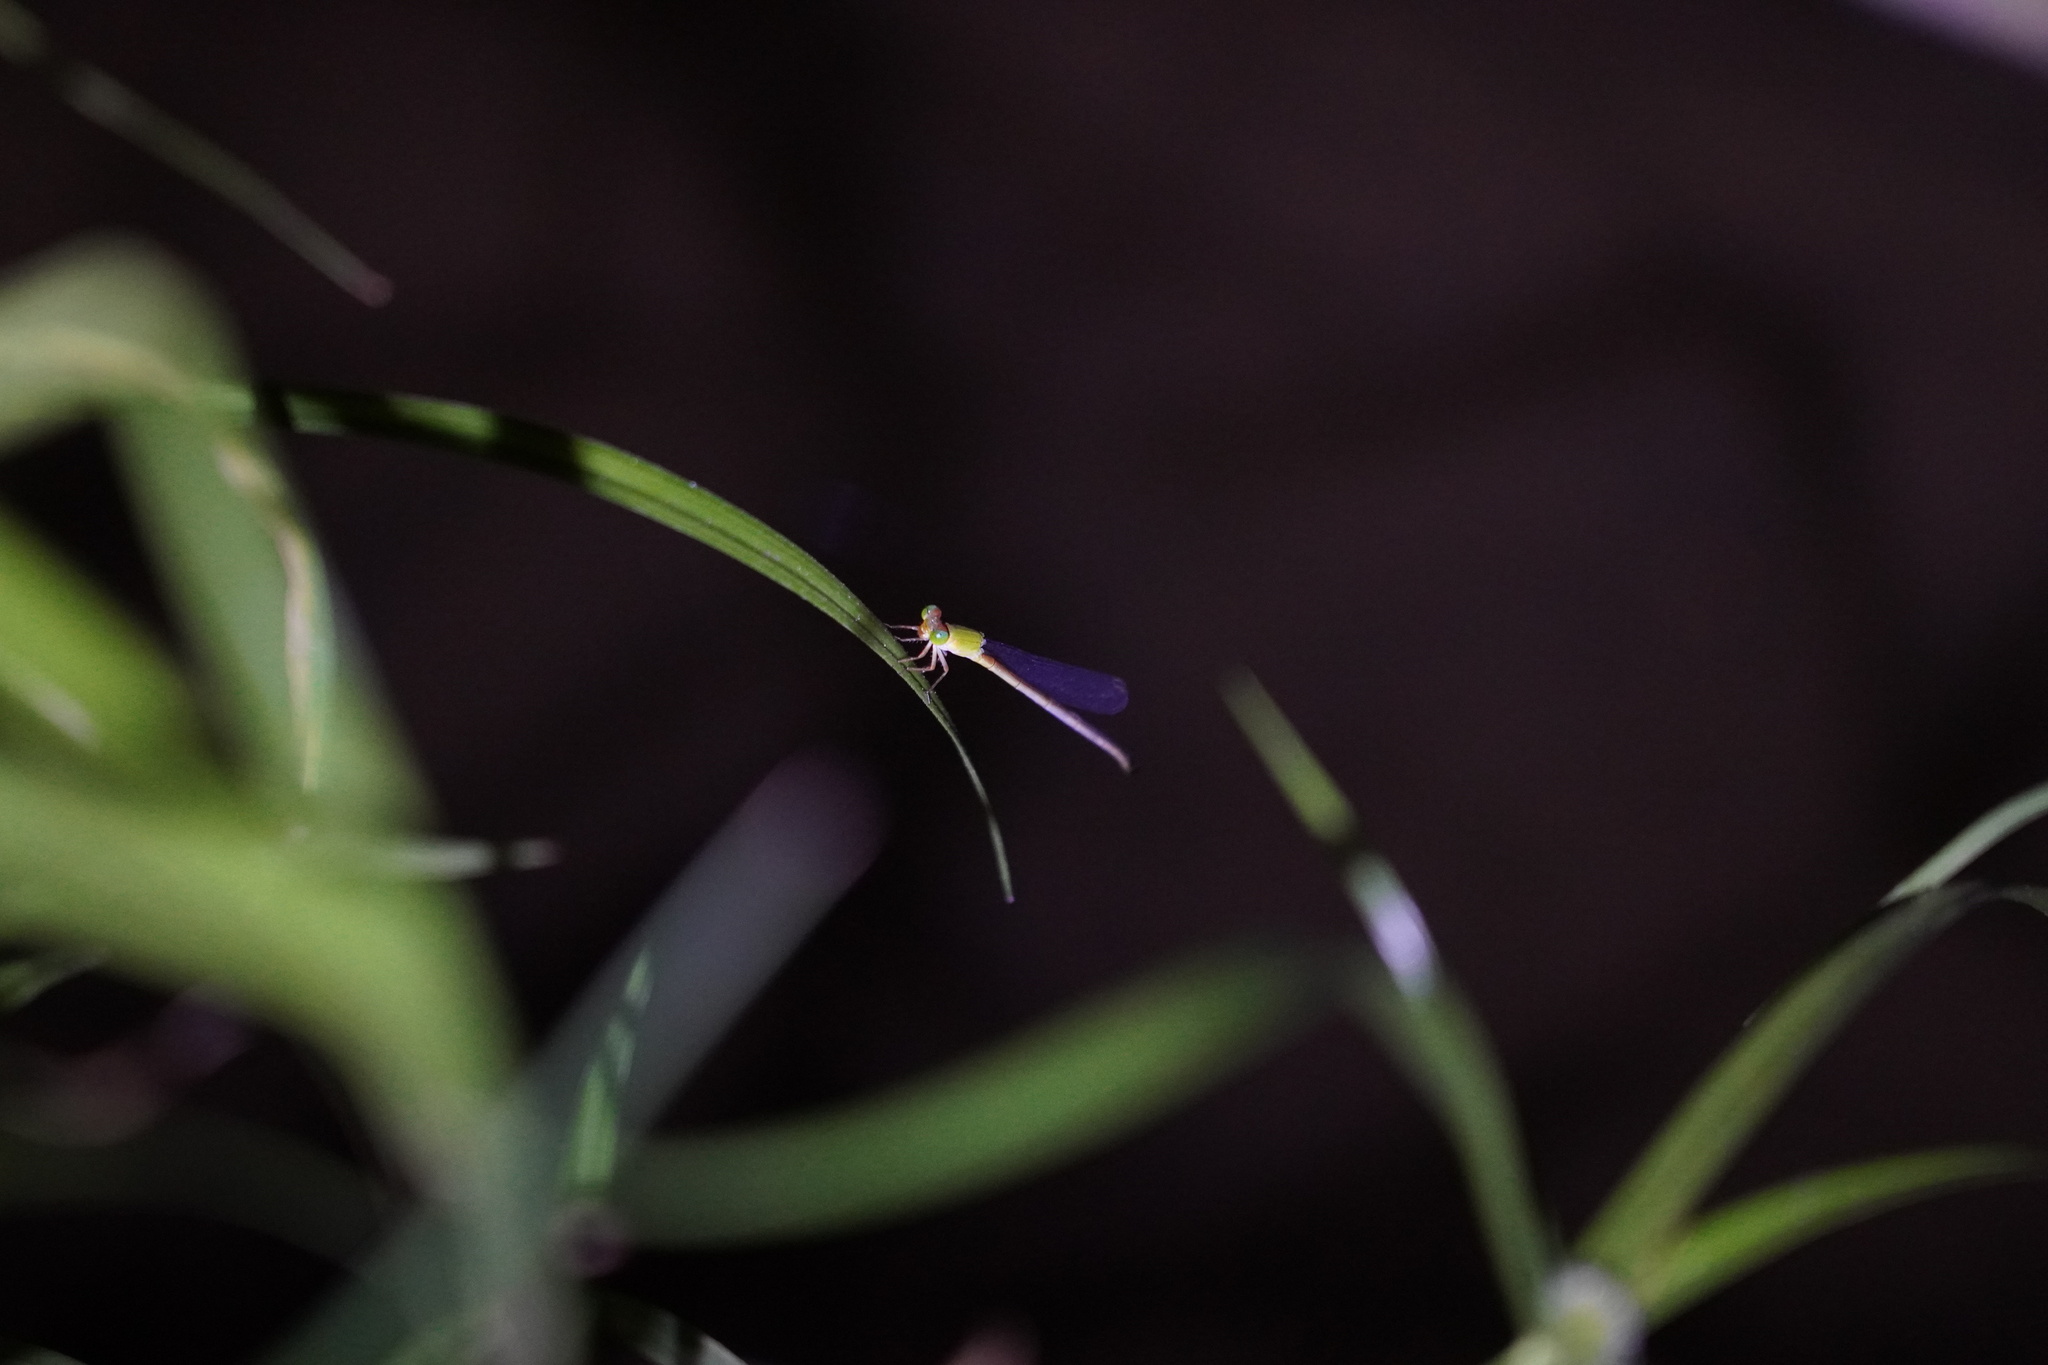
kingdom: Animalia
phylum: Arthropoda
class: Insecta
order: Odonata
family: Coenagrionidae
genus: Ceriagrion
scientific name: Ceriagrion auranticum
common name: Orange-tailed sprite
